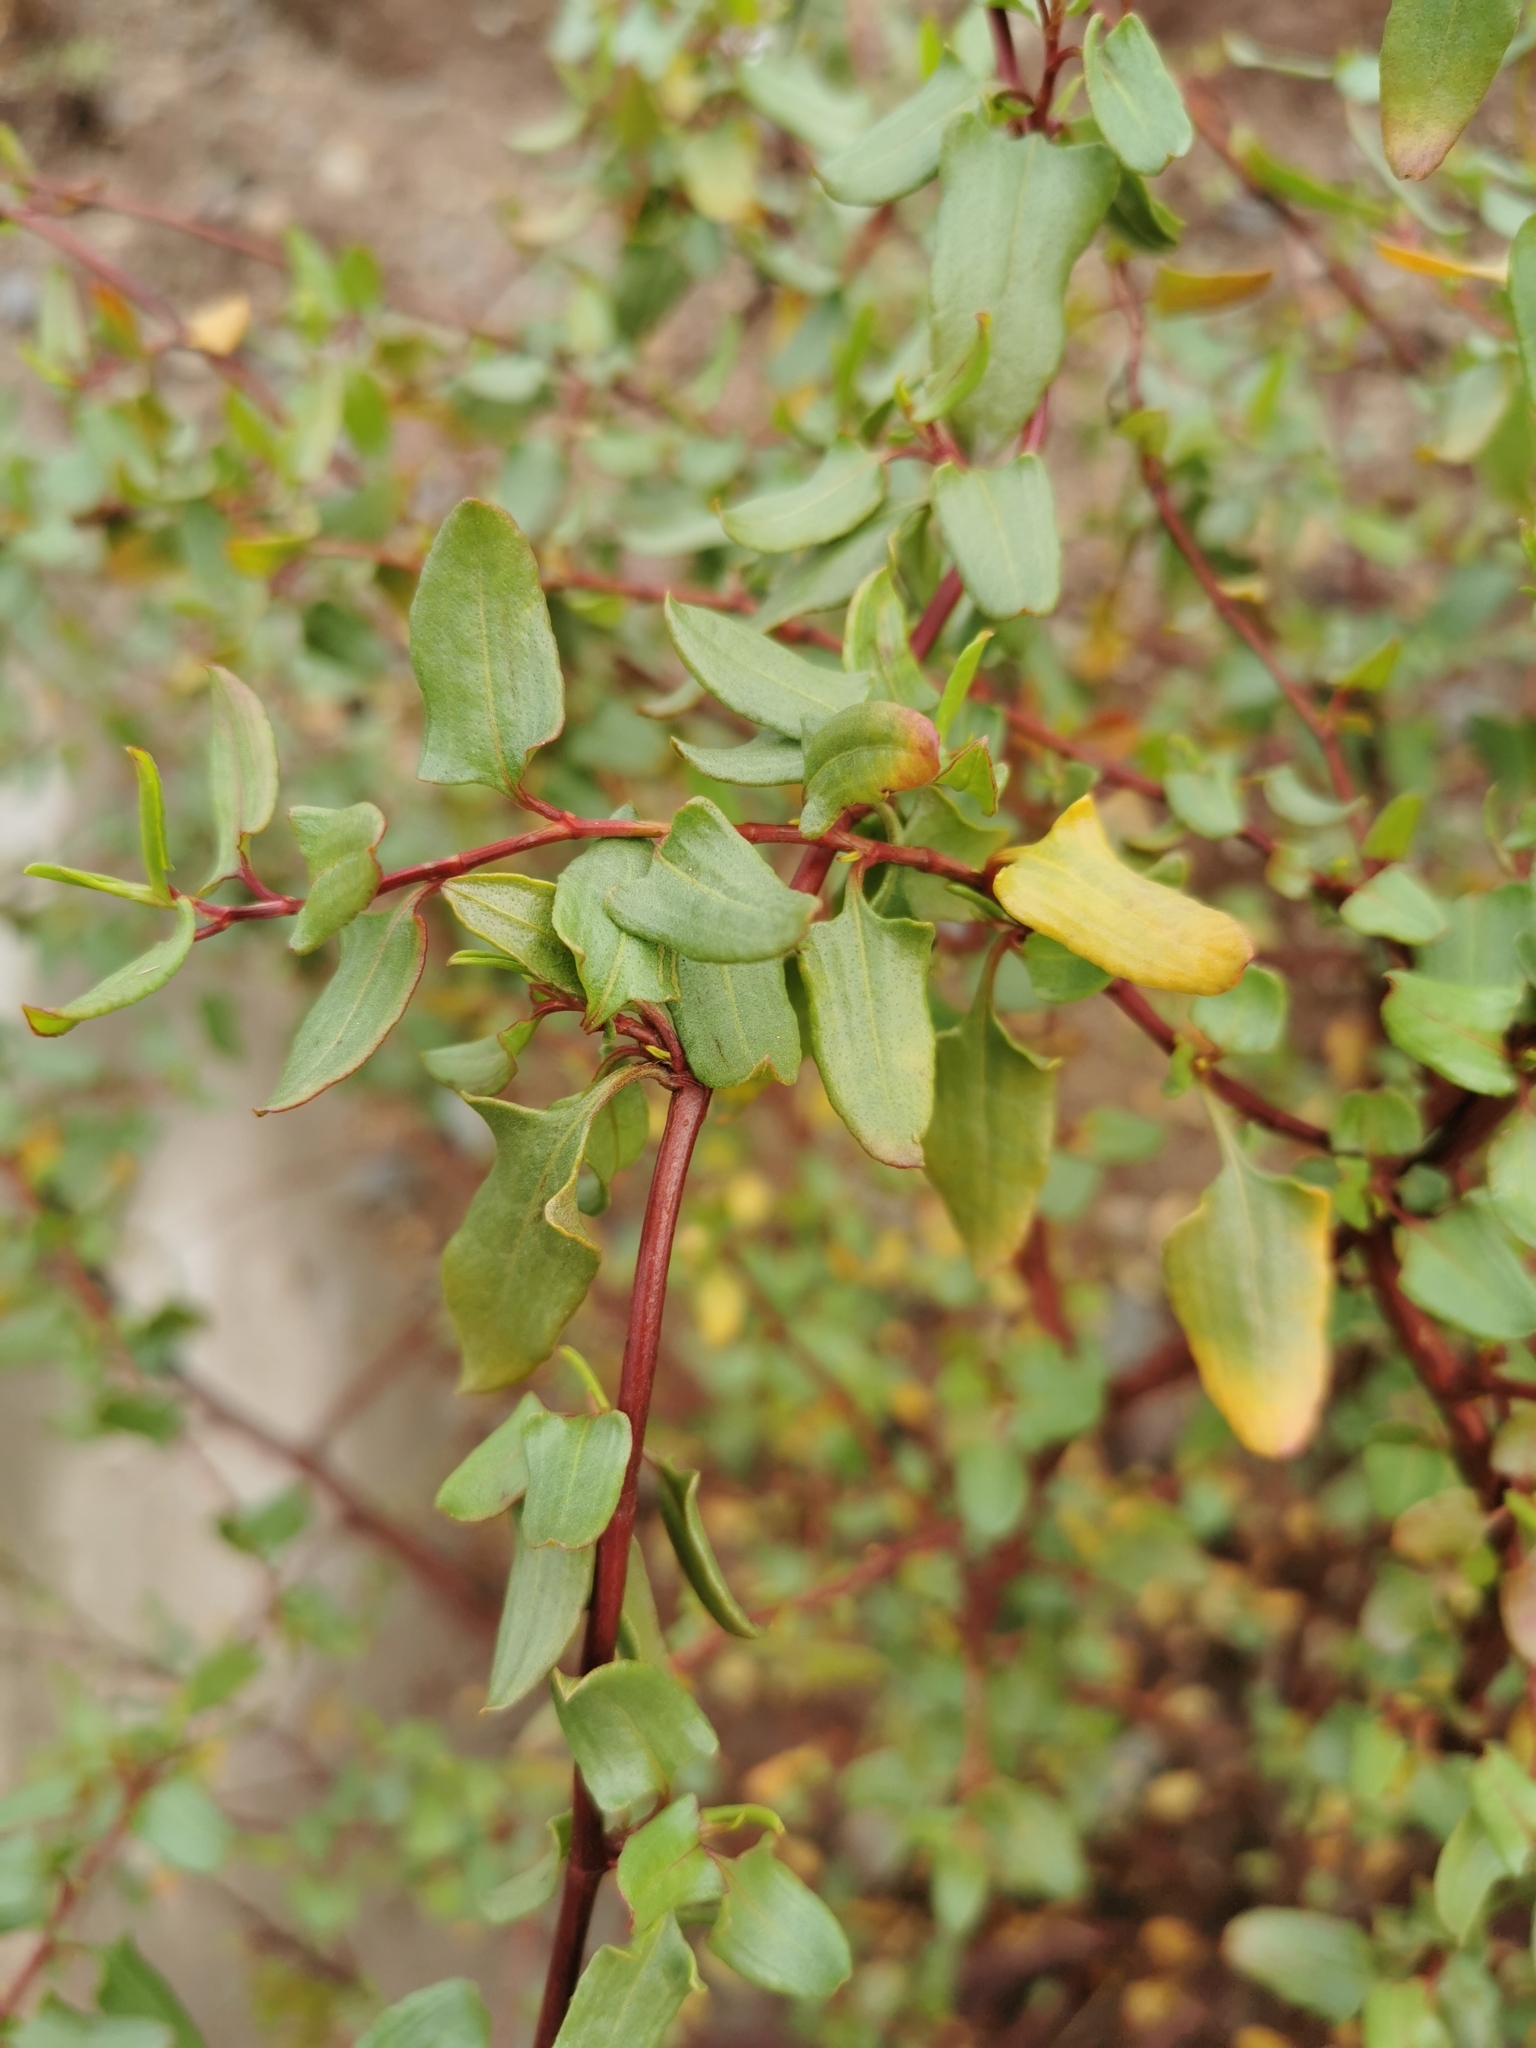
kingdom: Plantae
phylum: Tracheophyta
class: Magnoliopsida
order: Caryophyllales
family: Polygonaceae
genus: Muehlenbeckia
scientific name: Muehlenbeckia hastulata
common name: Wirevine
